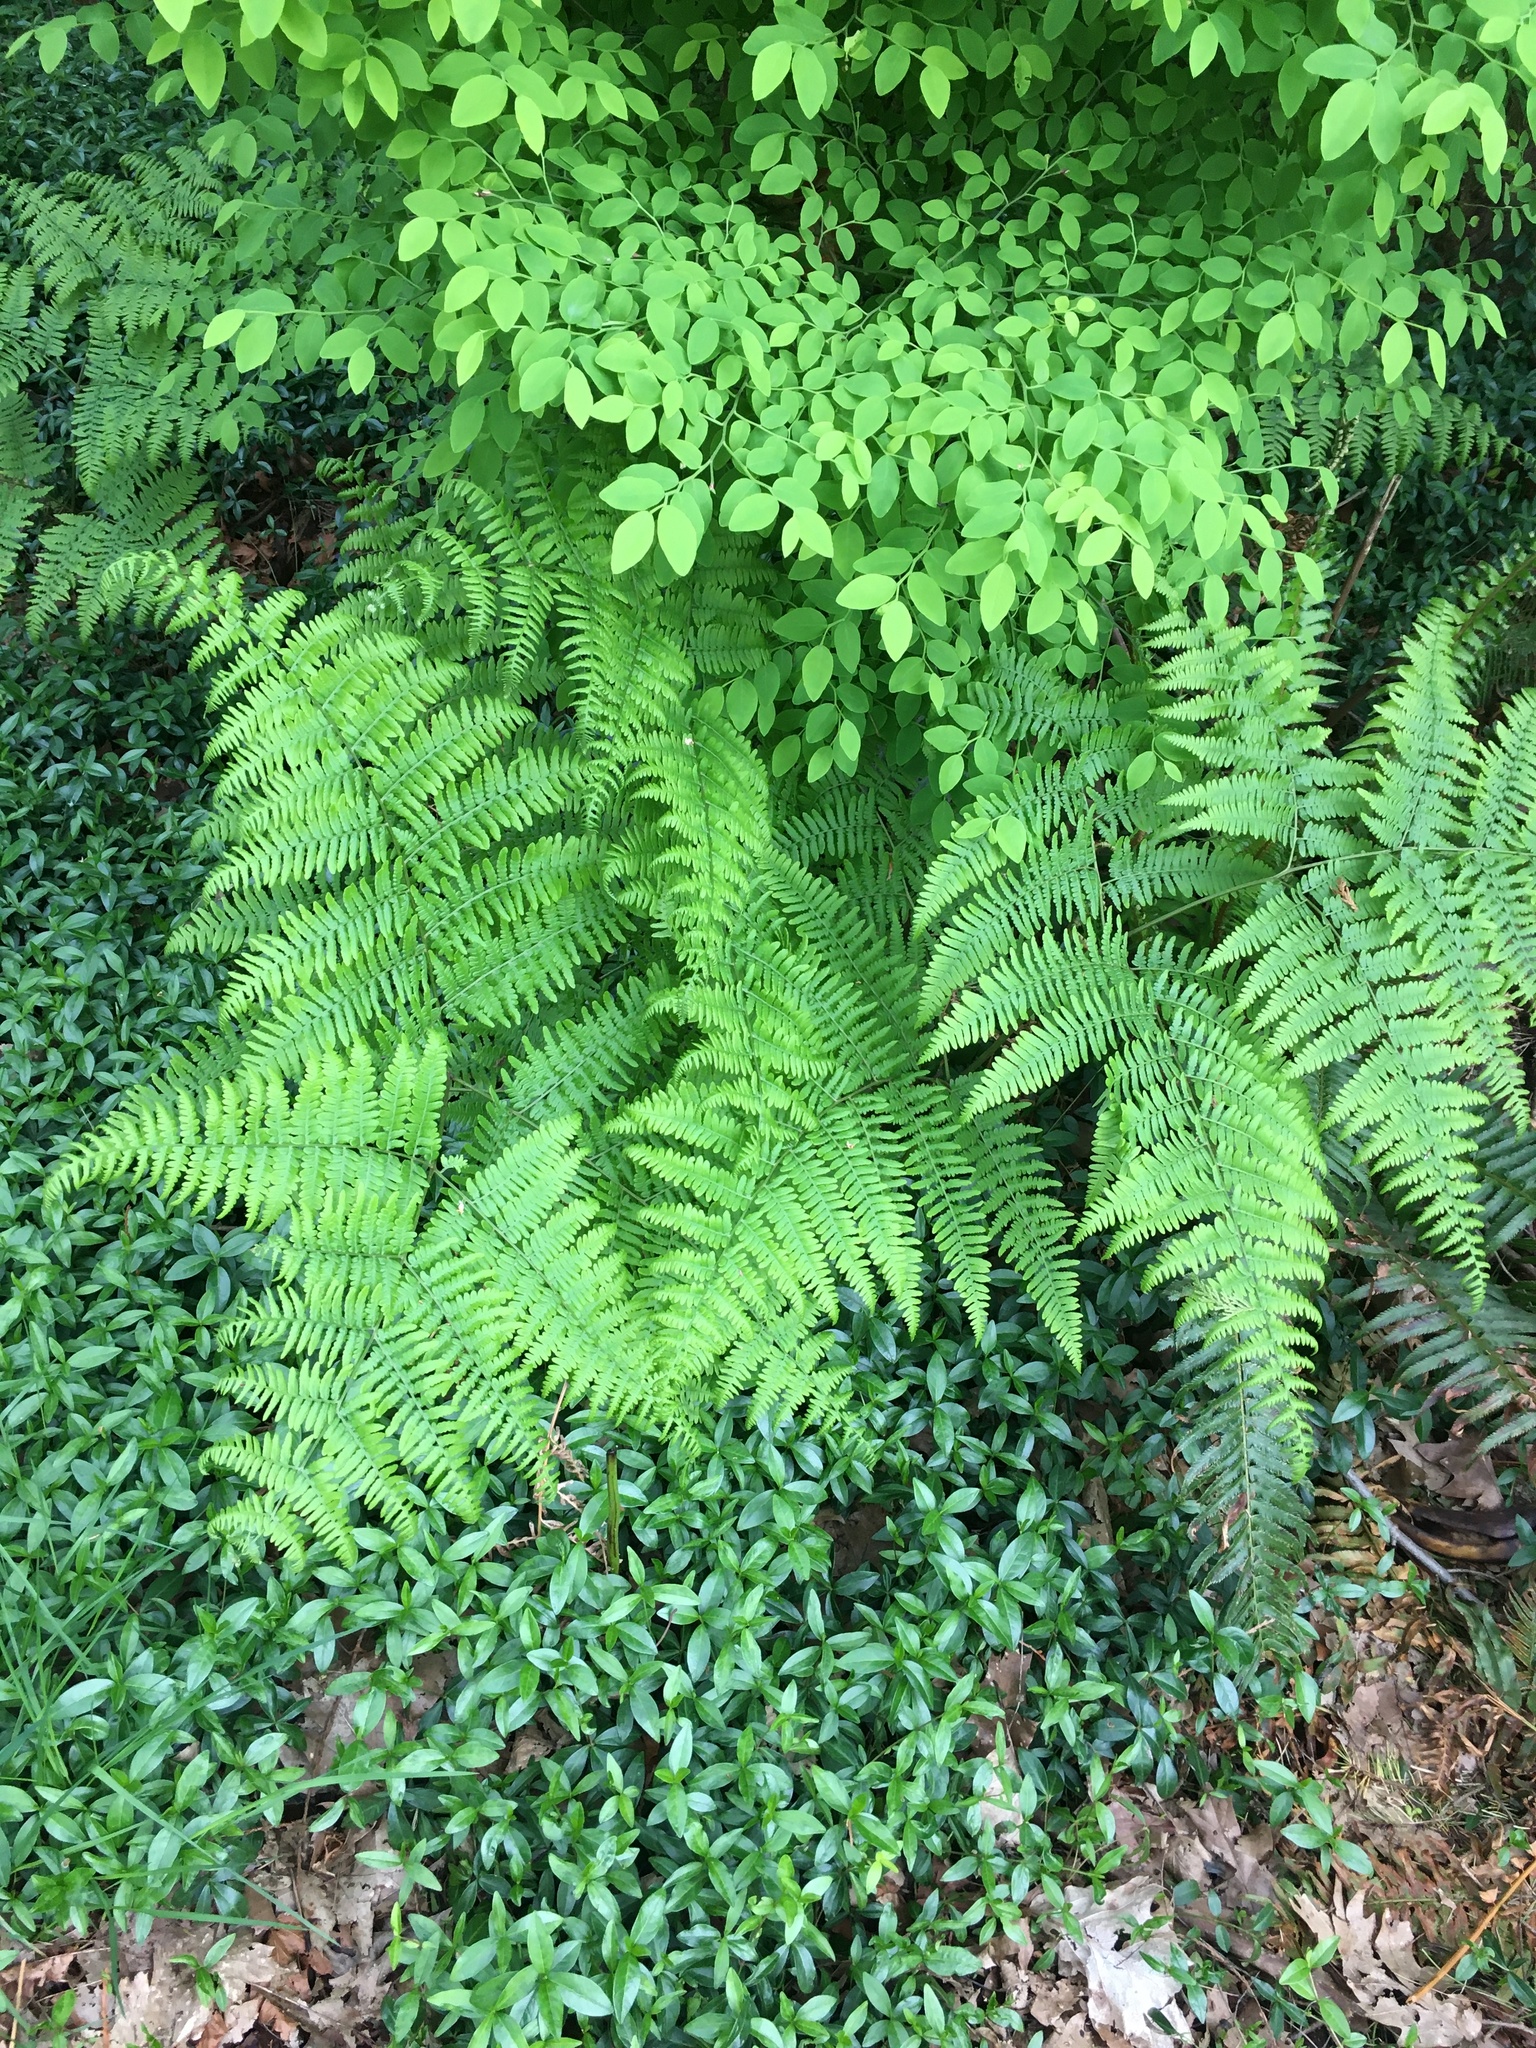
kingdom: Plantae
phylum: Tracheophyta
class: Polypodiopsida
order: Polypodiales
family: Dennstaedtiaceae
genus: Pteridium
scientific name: Pteridium aquilinum
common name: Bracken
